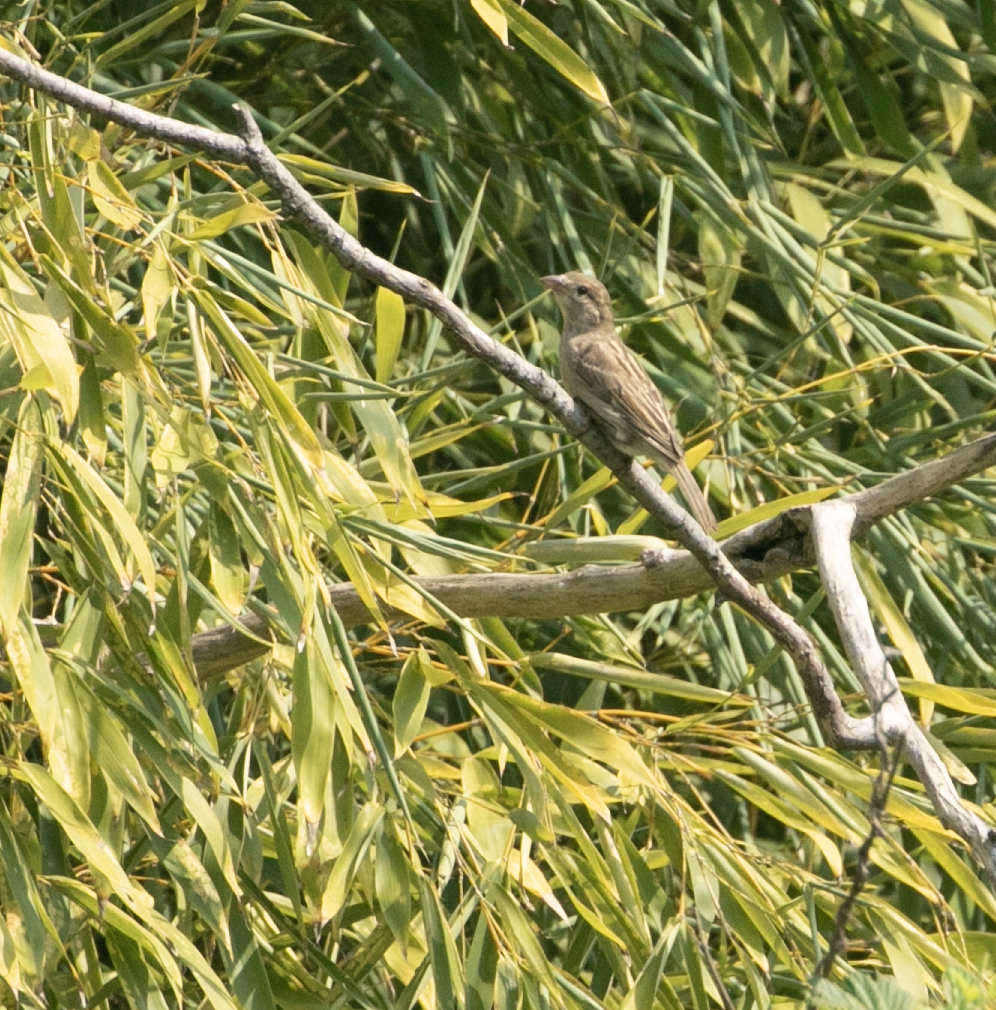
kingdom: Animalia
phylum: Chordata
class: Aves
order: Passeriformes
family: Passeridae
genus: Passer
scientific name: Passer italiae
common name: Italian sparrow
